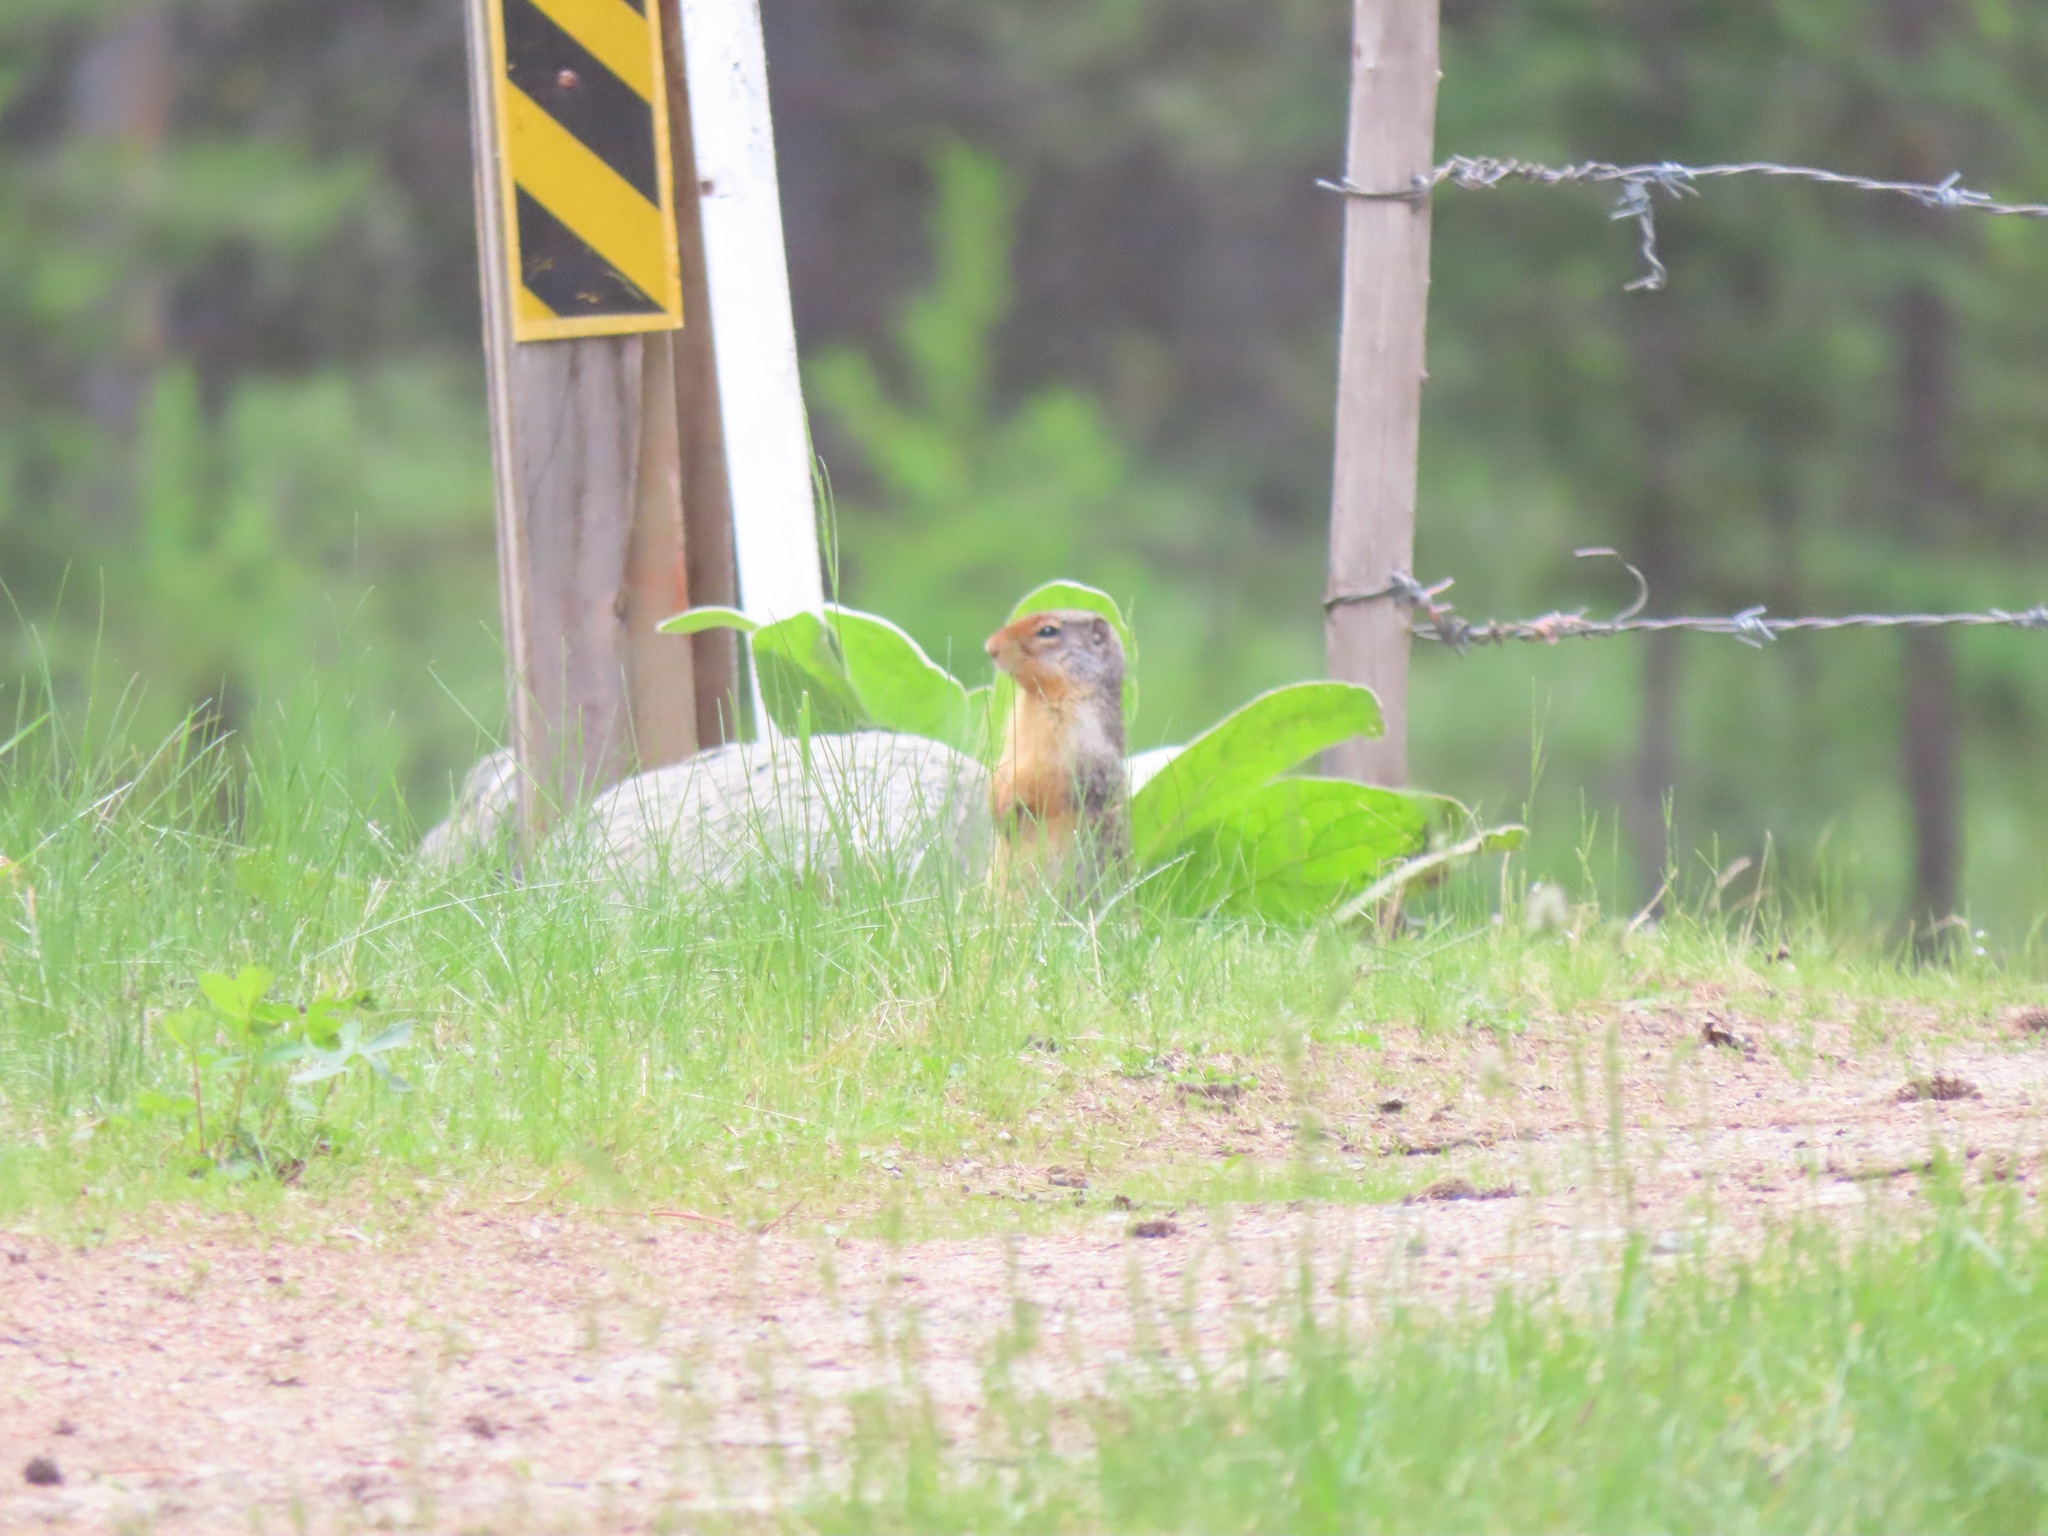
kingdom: Animalia
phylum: Chordata
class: Mammalia
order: Rodentia
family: Sciuridae
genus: Urocitellus
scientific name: Urocitellus columbianus
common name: Columbian ground squirrel
